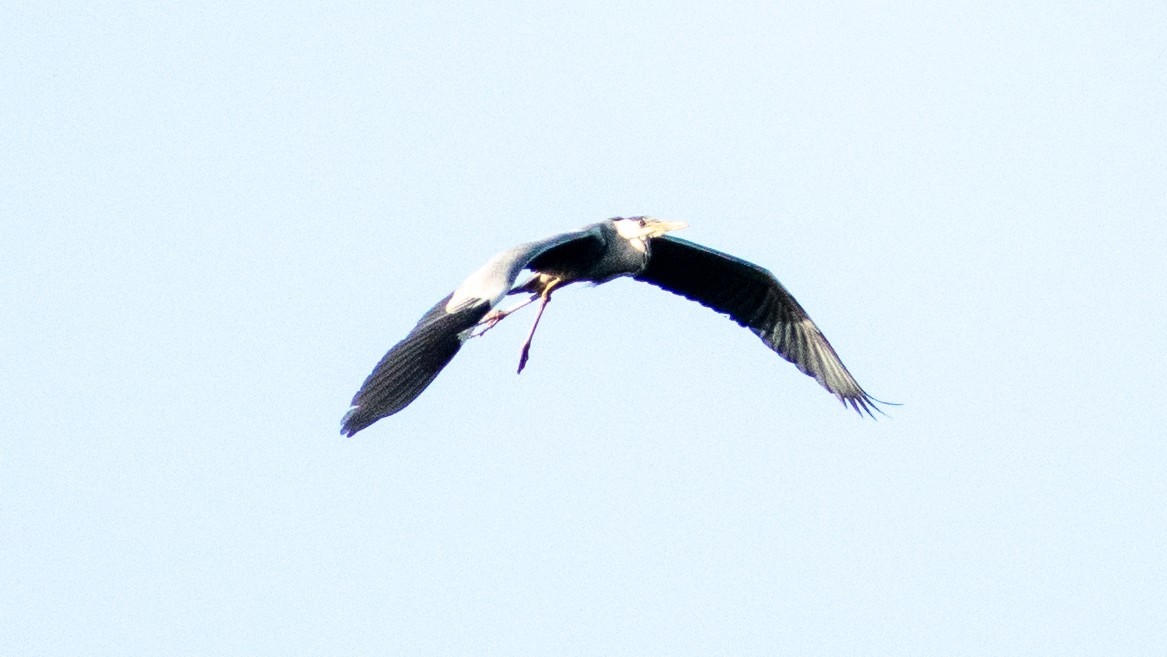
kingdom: Animalia
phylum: Chordata
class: Aves
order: Pelecaniformes
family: Ardeidae
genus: Ardea
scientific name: Ardea cinerea
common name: Grey heron
